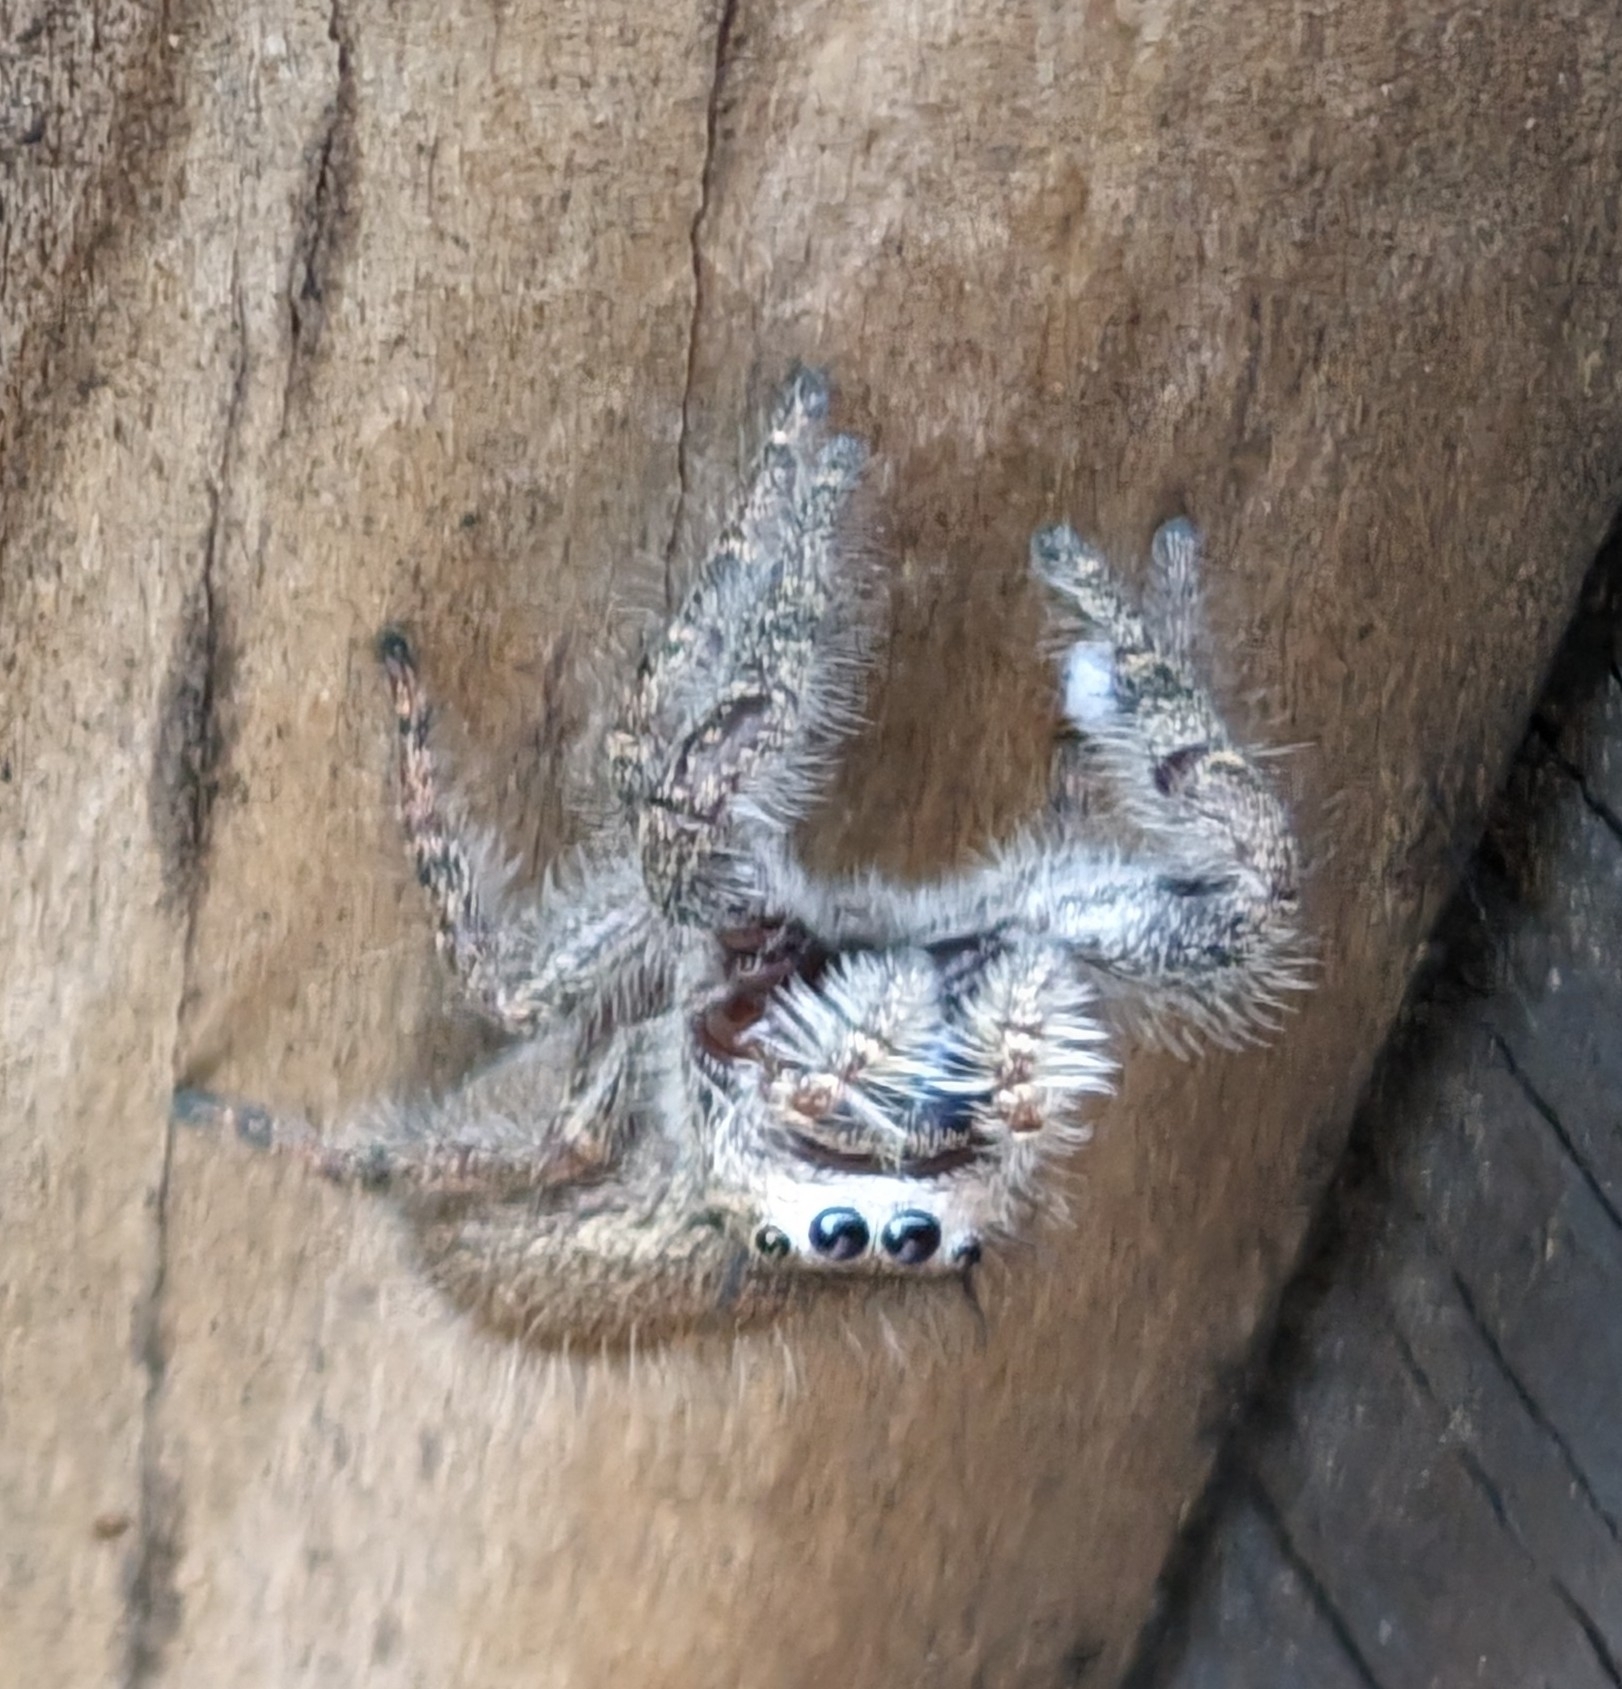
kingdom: Animalia
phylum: Arthropoda
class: Arachnida
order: Araneae
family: Salticidae
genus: Phidippus
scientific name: Phidippus princeps
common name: Grayish jumping spider
